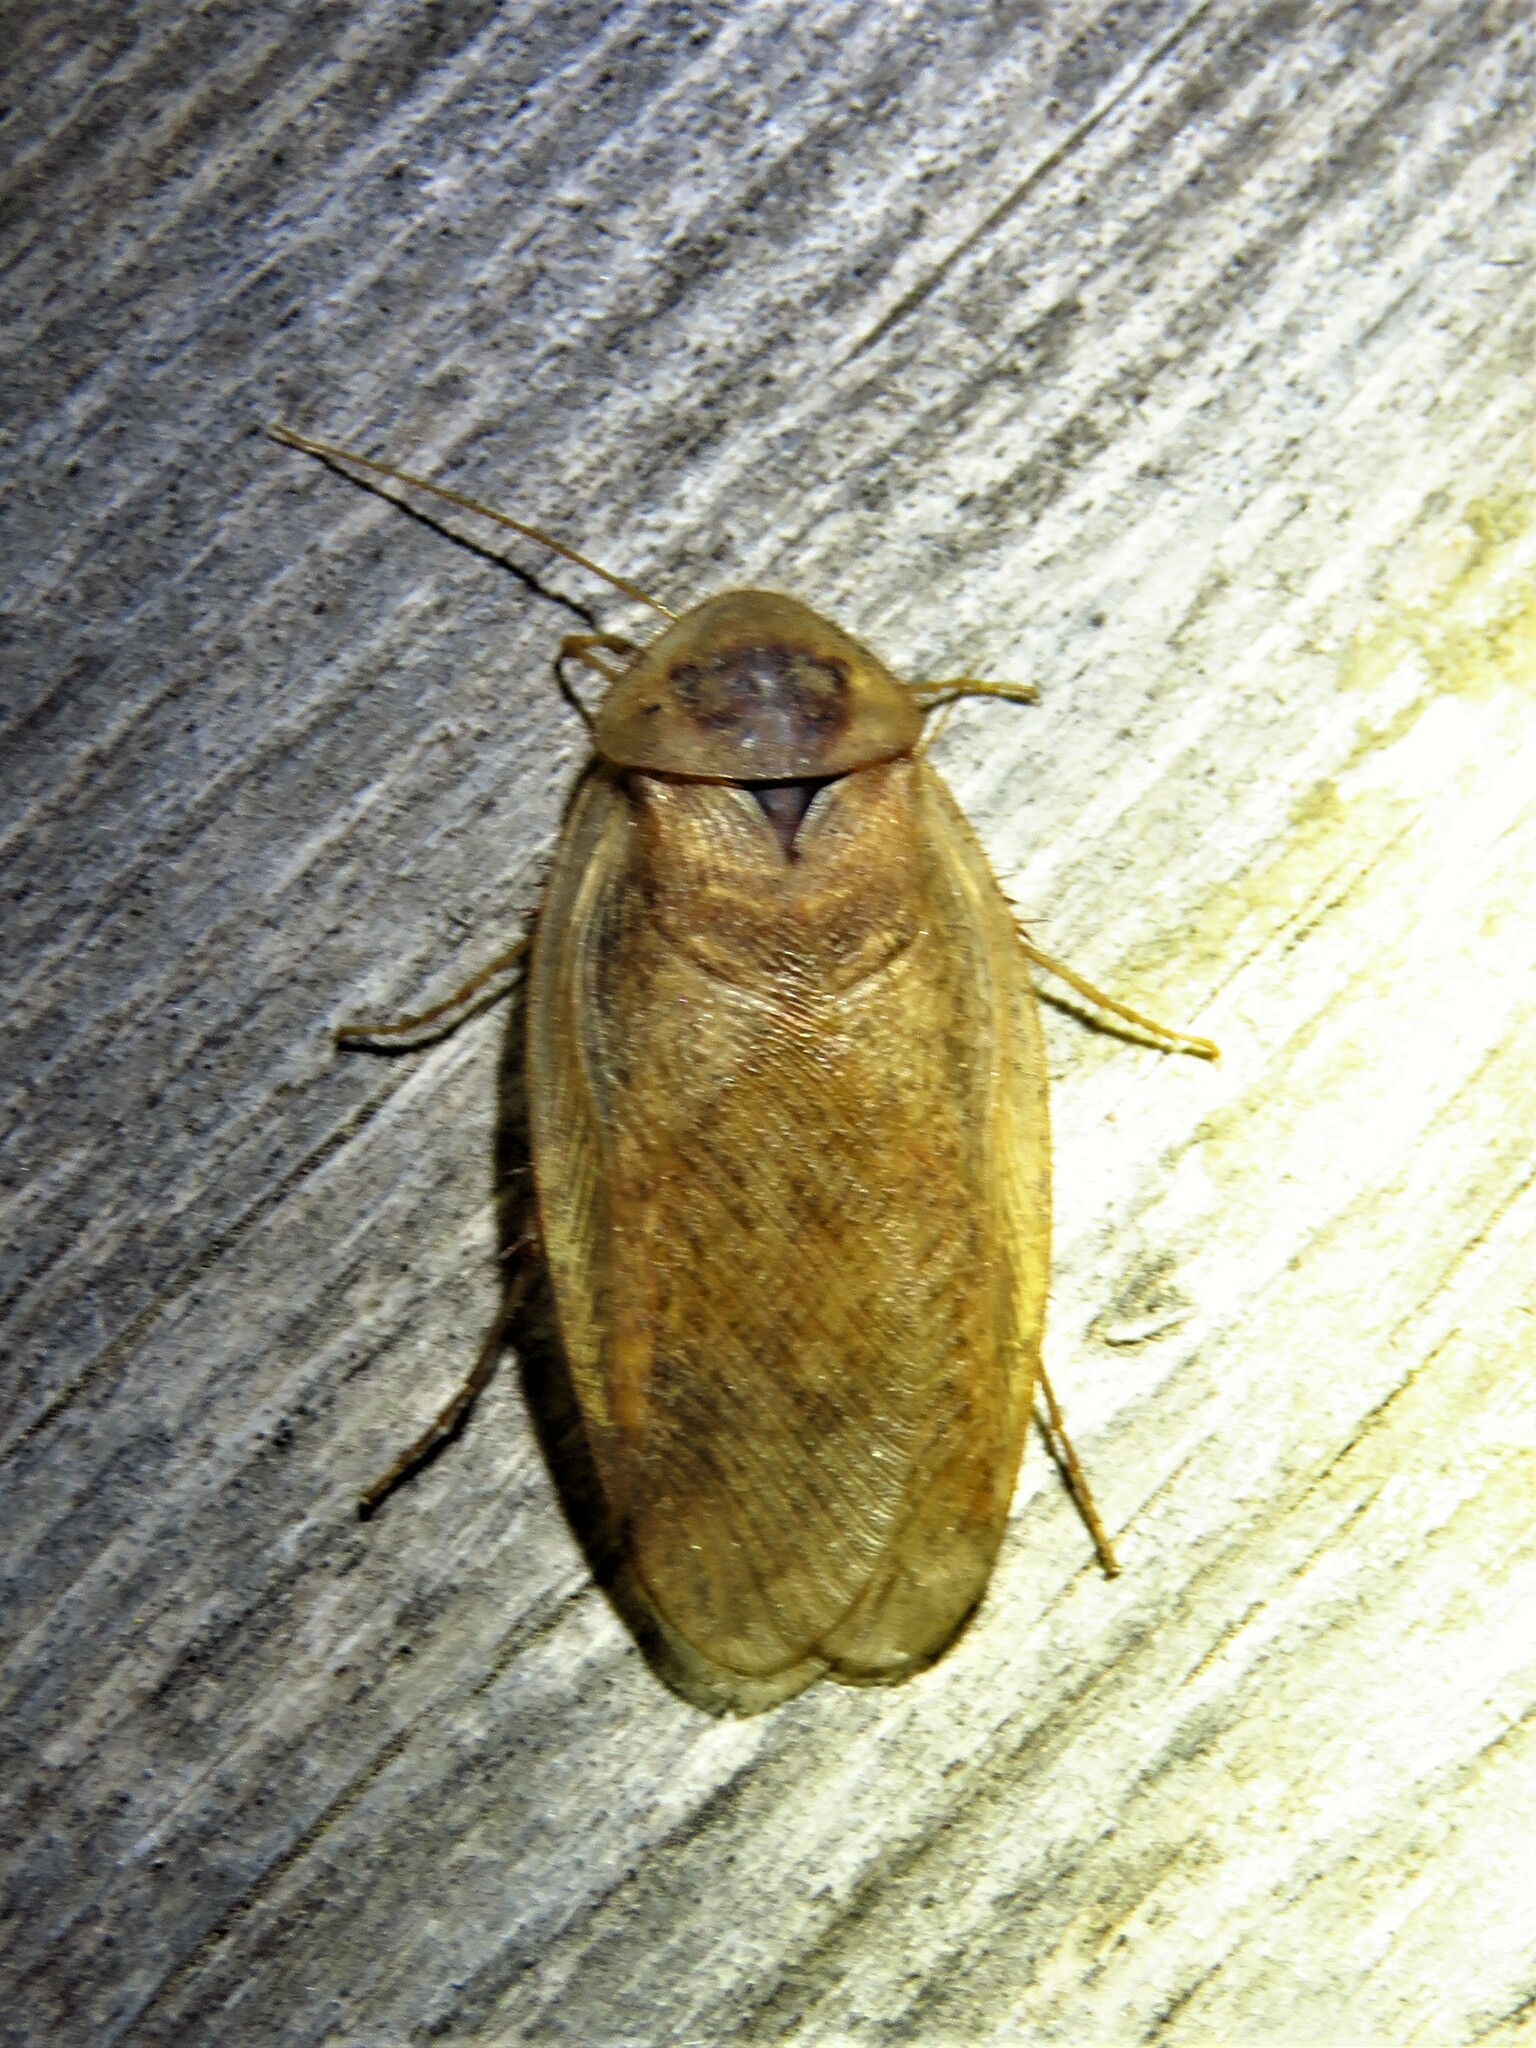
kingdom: Animalia
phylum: Arthropoda
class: Insecta
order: Blattodea
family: Corydiidae
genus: Arenivaga
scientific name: Arenivaga bolliana
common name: Boll's sand cockroach
